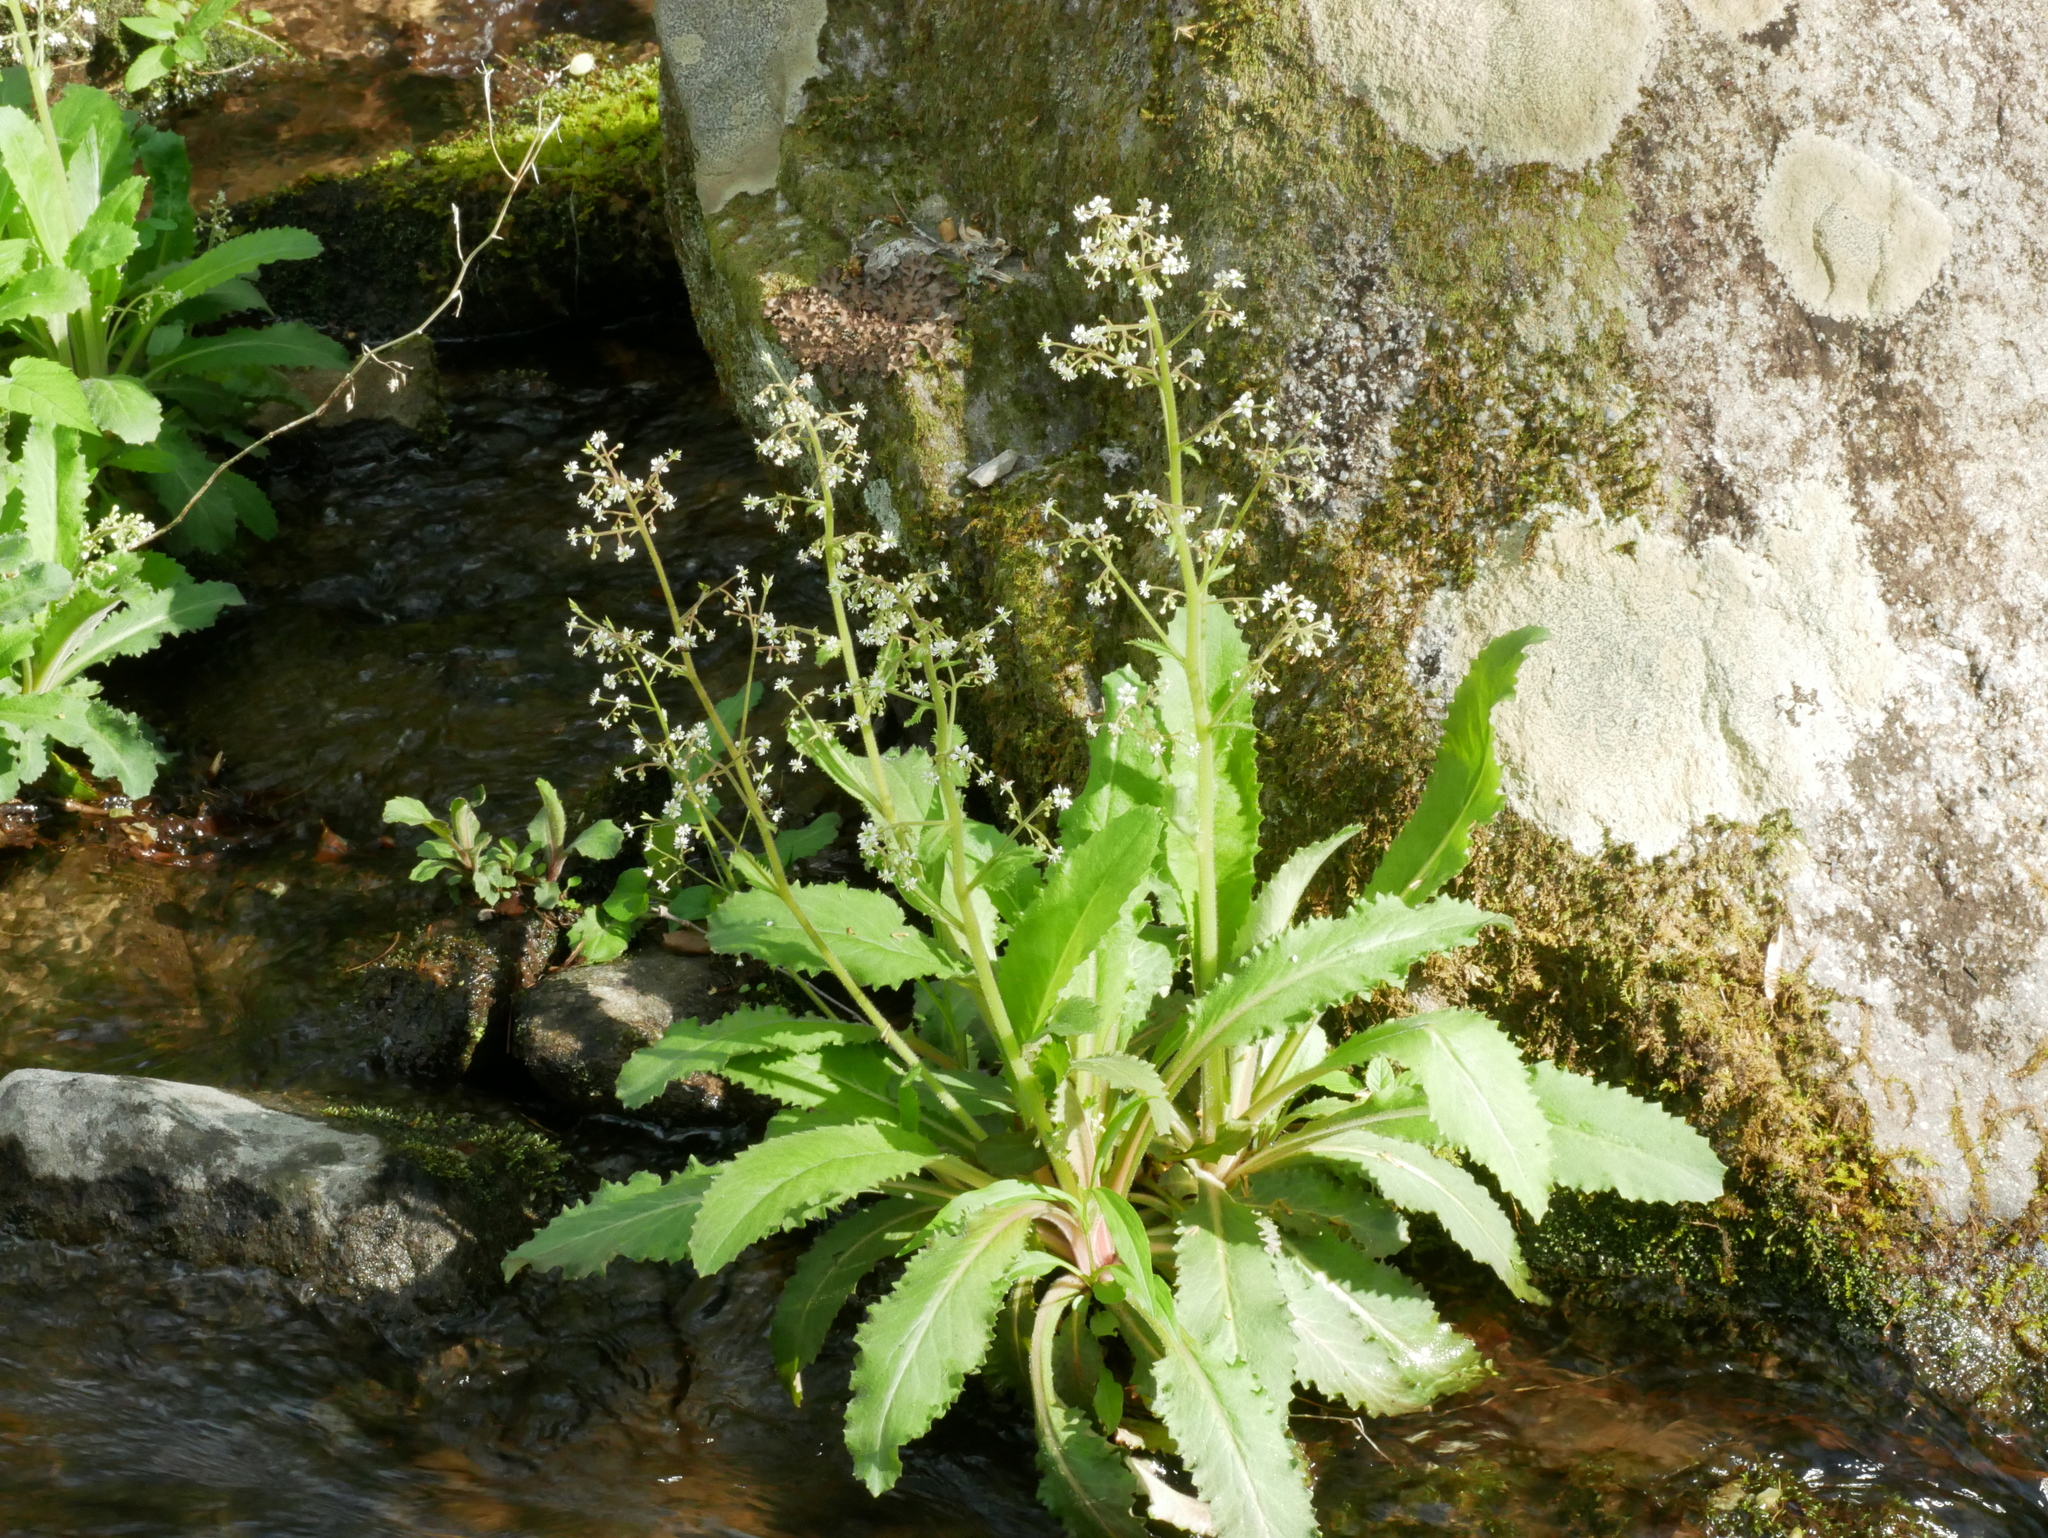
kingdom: Plantae
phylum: Tracheophyta
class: Magnoliopsida
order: Saxifragales
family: Saxifragaceae
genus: Micranthes
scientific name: Micranthes micranthidifolia
